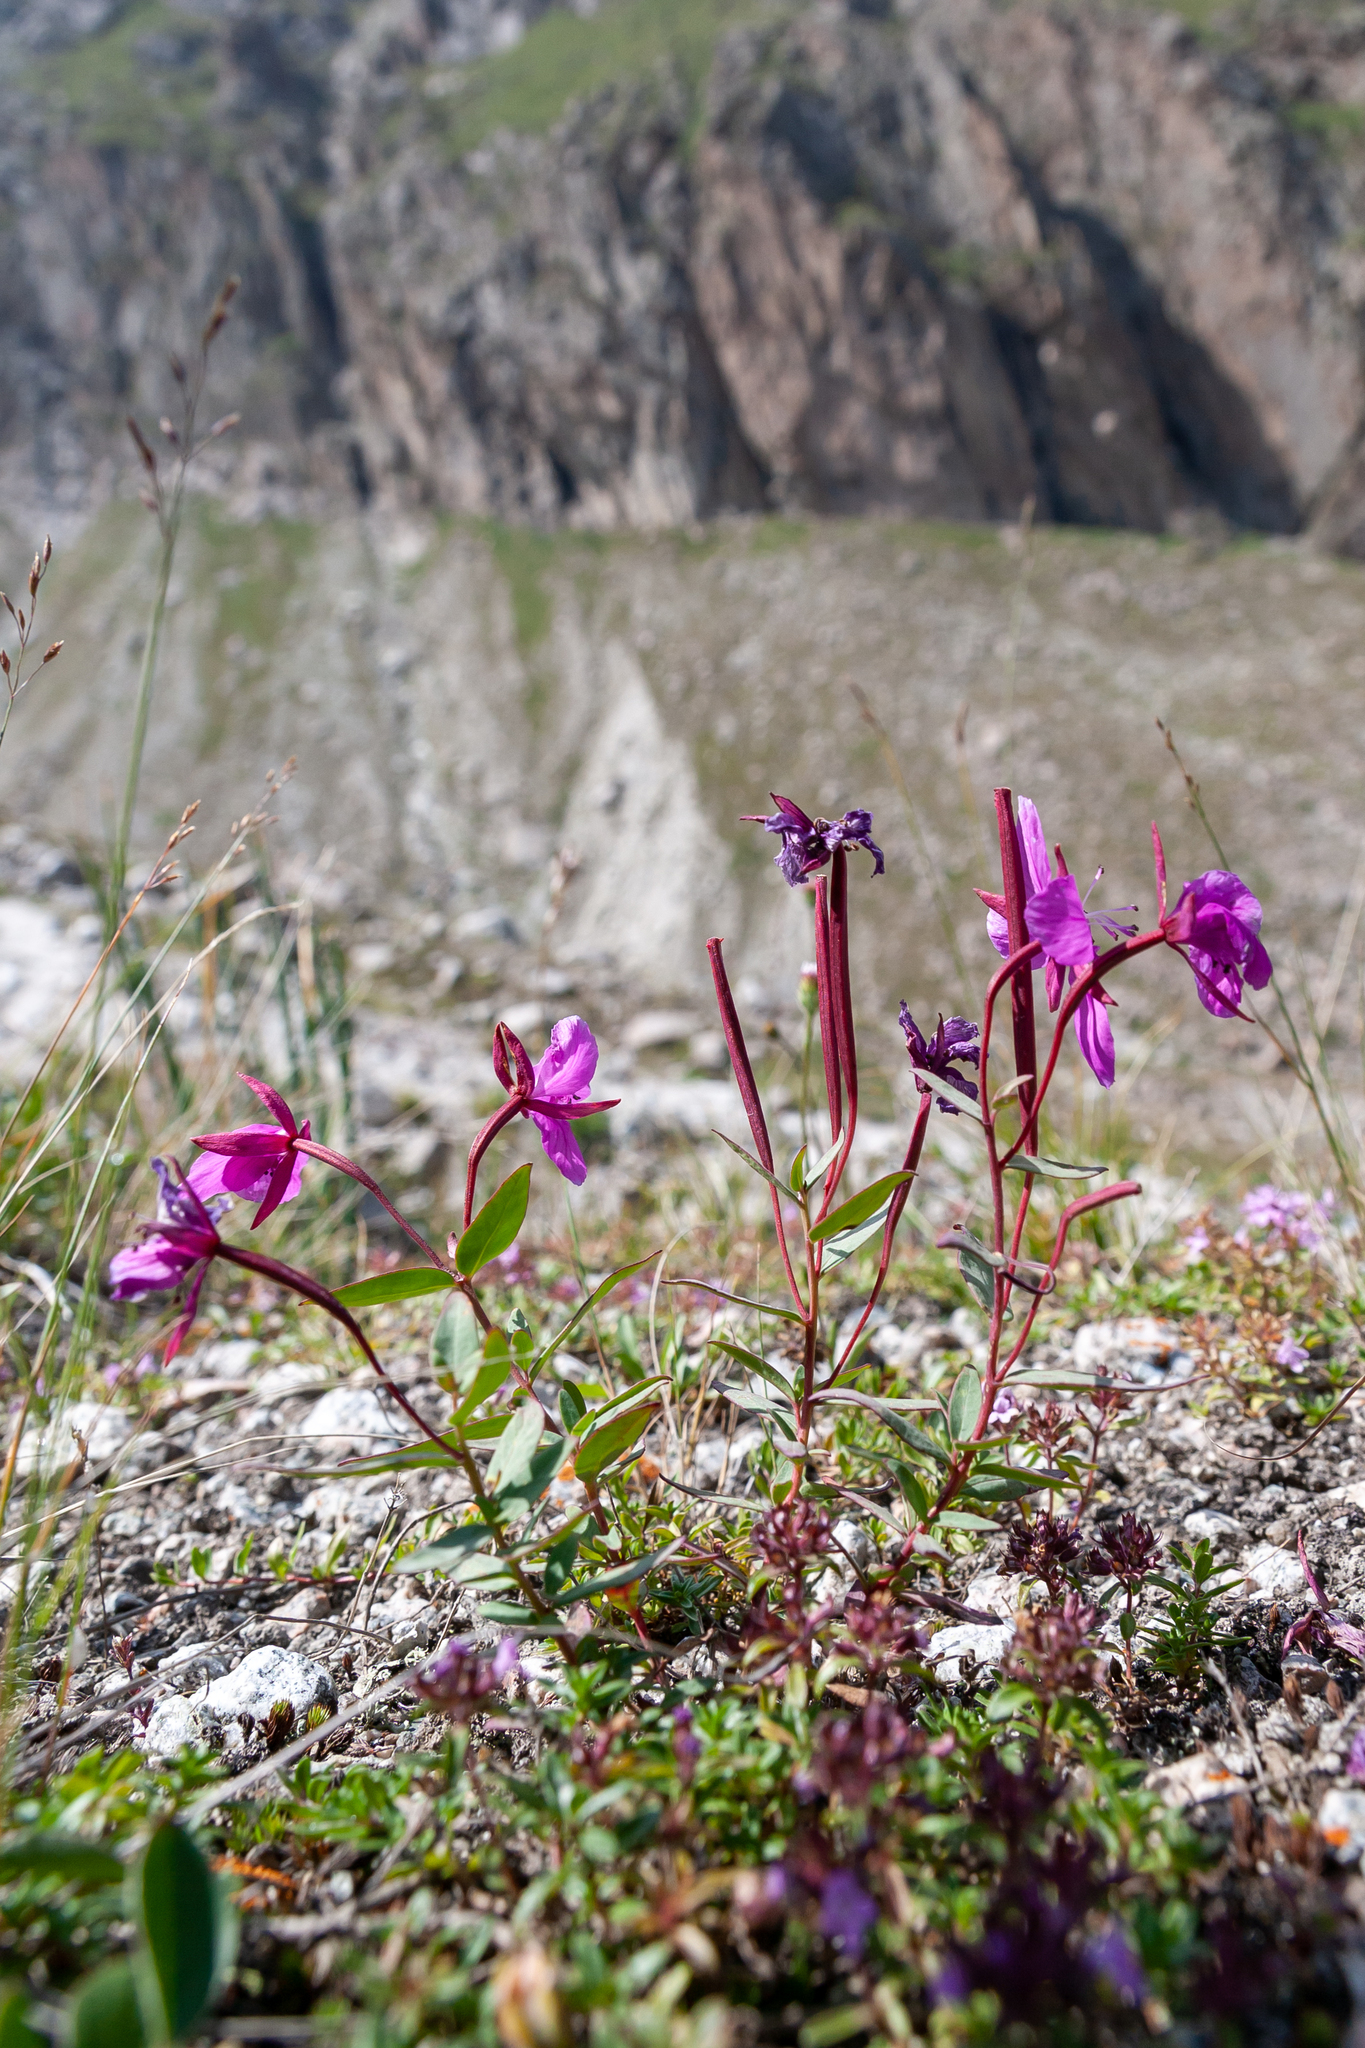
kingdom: Plantae
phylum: Tracheophyta
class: Magnoliopsida
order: Myrtales
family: Onagraceae
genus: Chamaenerion
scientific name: Chamaenerion latifolium
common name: Dwarf fireweed
